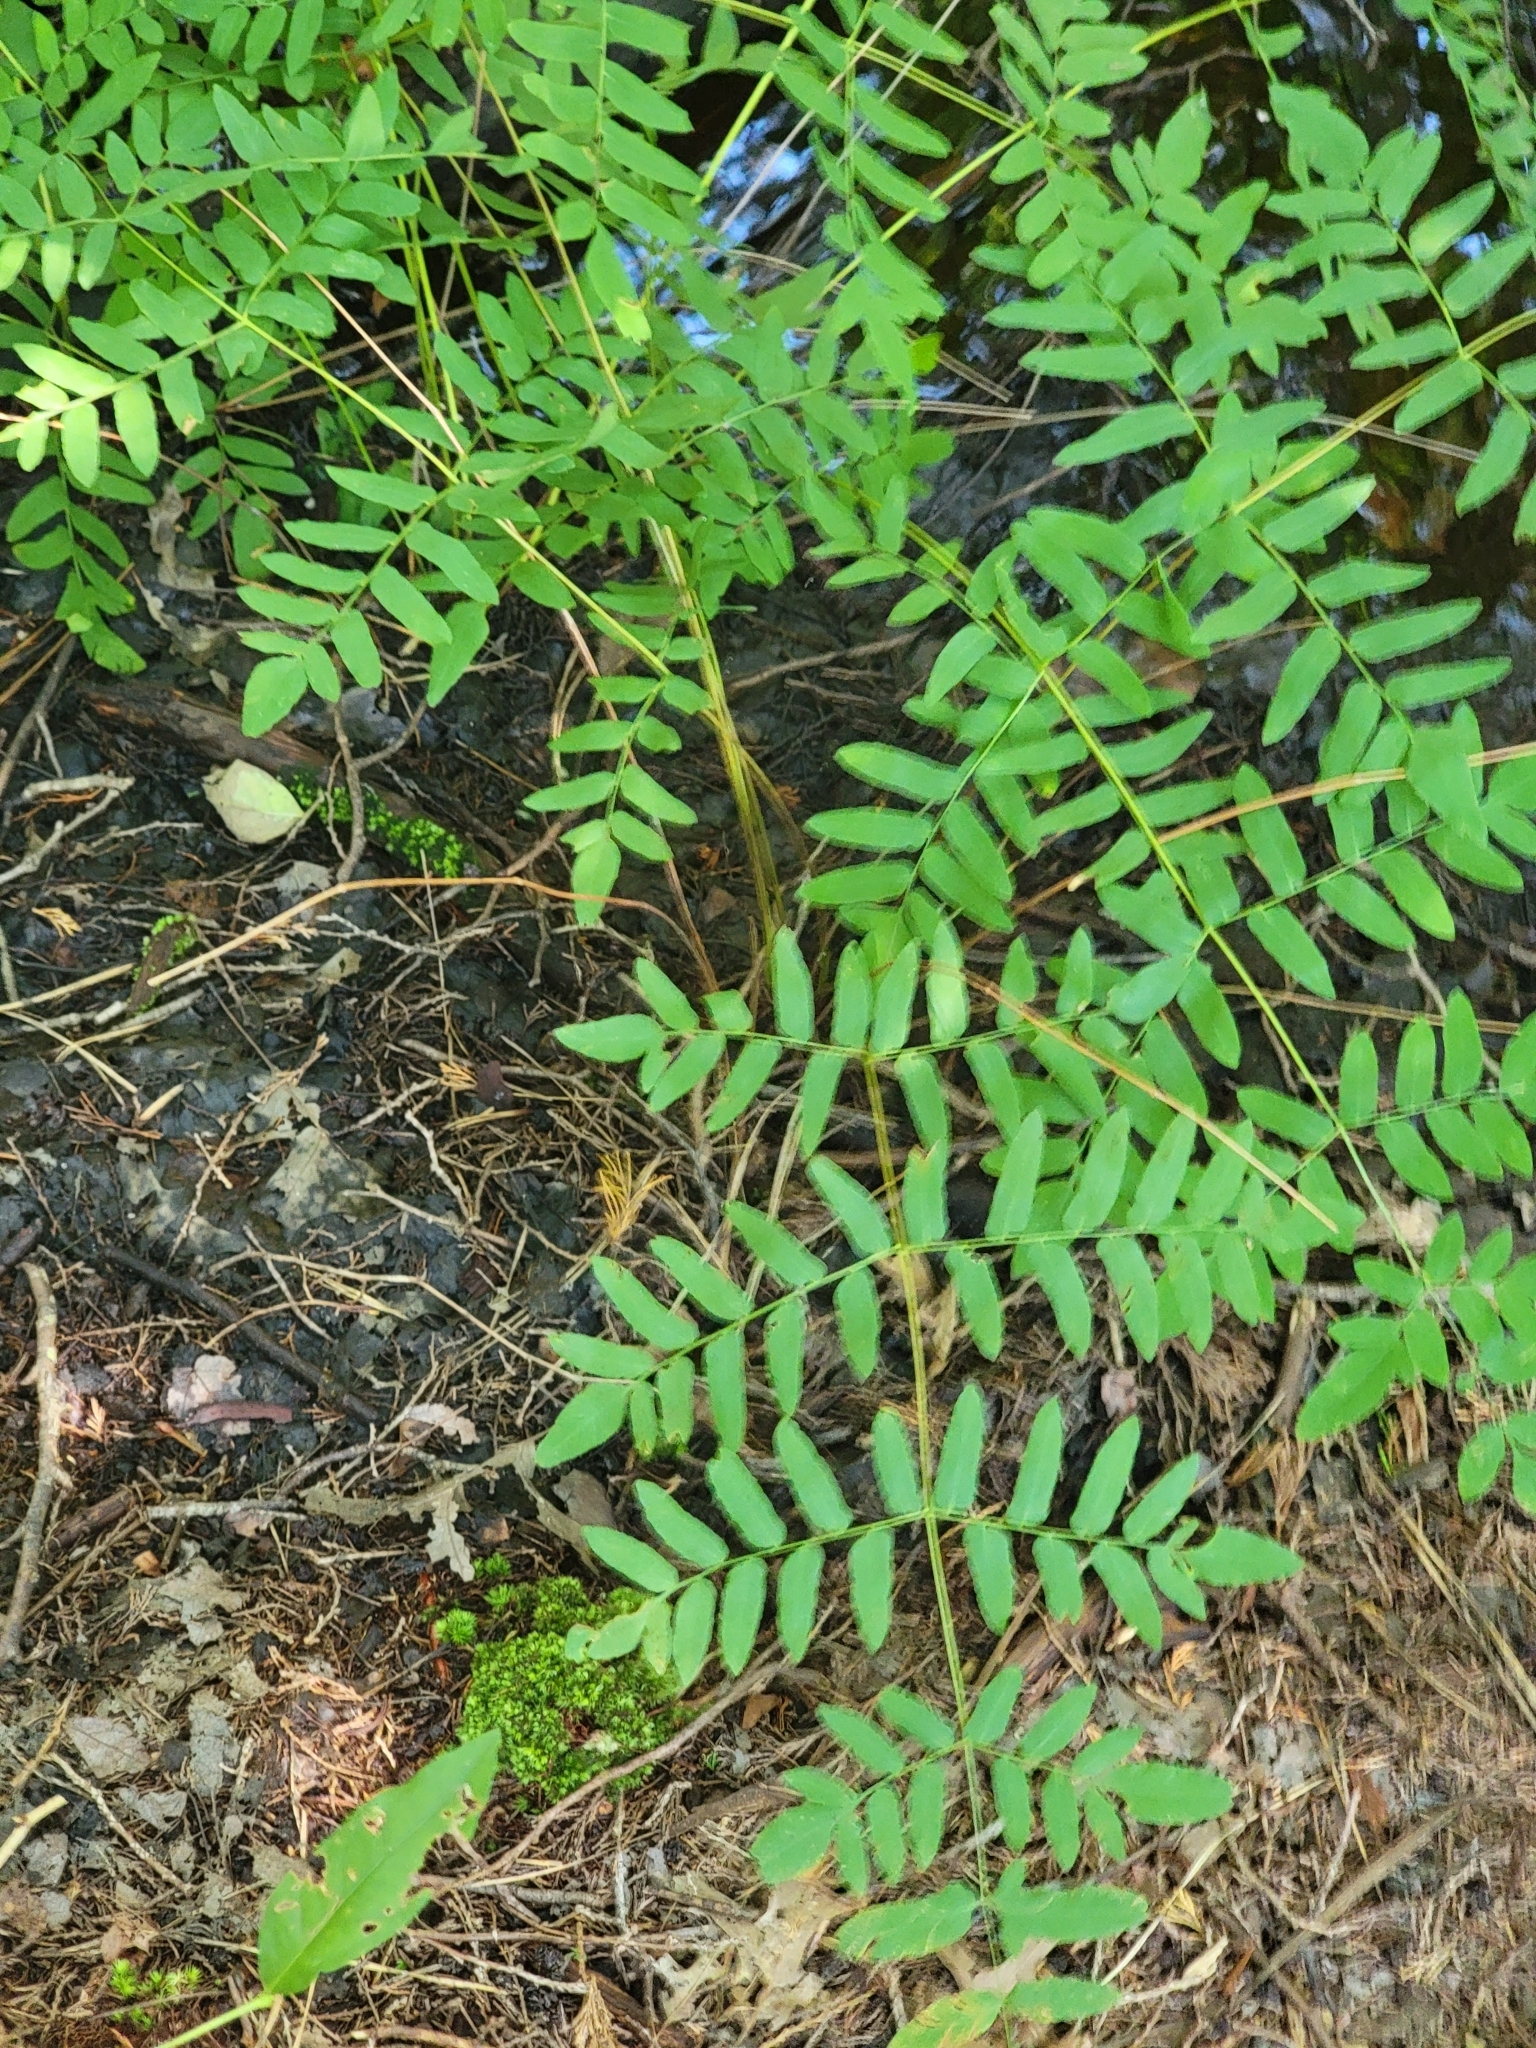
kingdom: Plantae
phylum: Tracheophyta
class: Polypodiopsida
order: Osmundales
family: Osmundaceae
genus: Osmunda
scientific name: Osmunda spectabilis
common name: American royal fern
